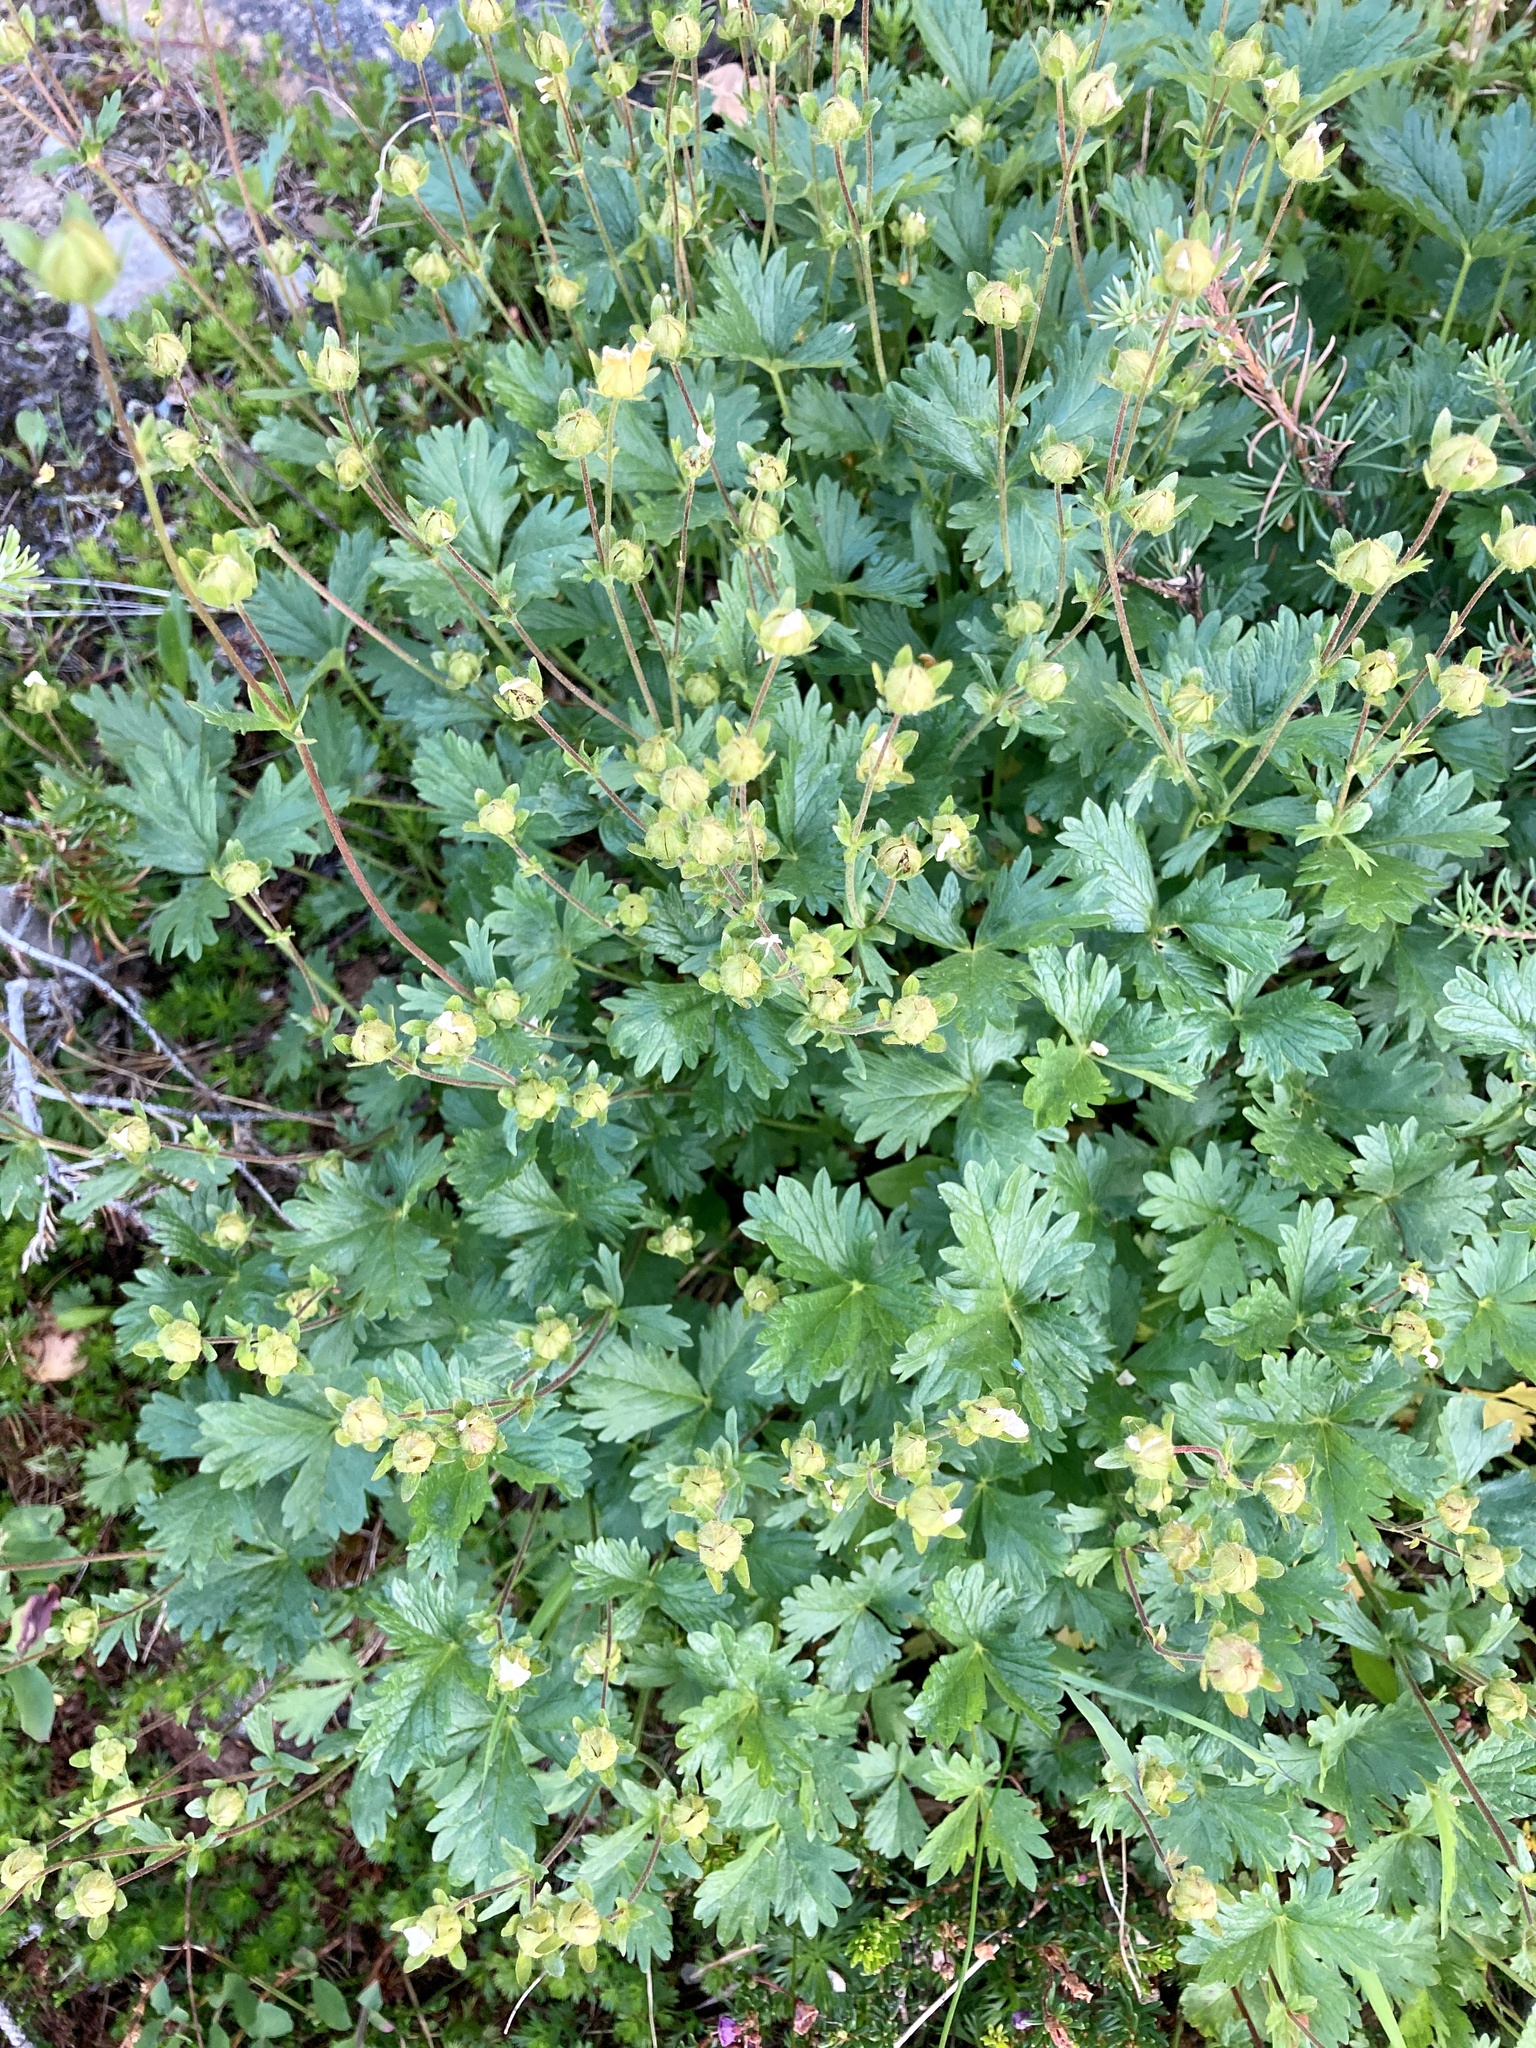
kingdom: Plantae
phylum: Tracheophyta
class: Magnoliopsida
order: Rosales
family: Rosaceae
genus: Potentilla
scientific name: Potentilla flabellifolia
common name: Mount rainier cinquefoil
